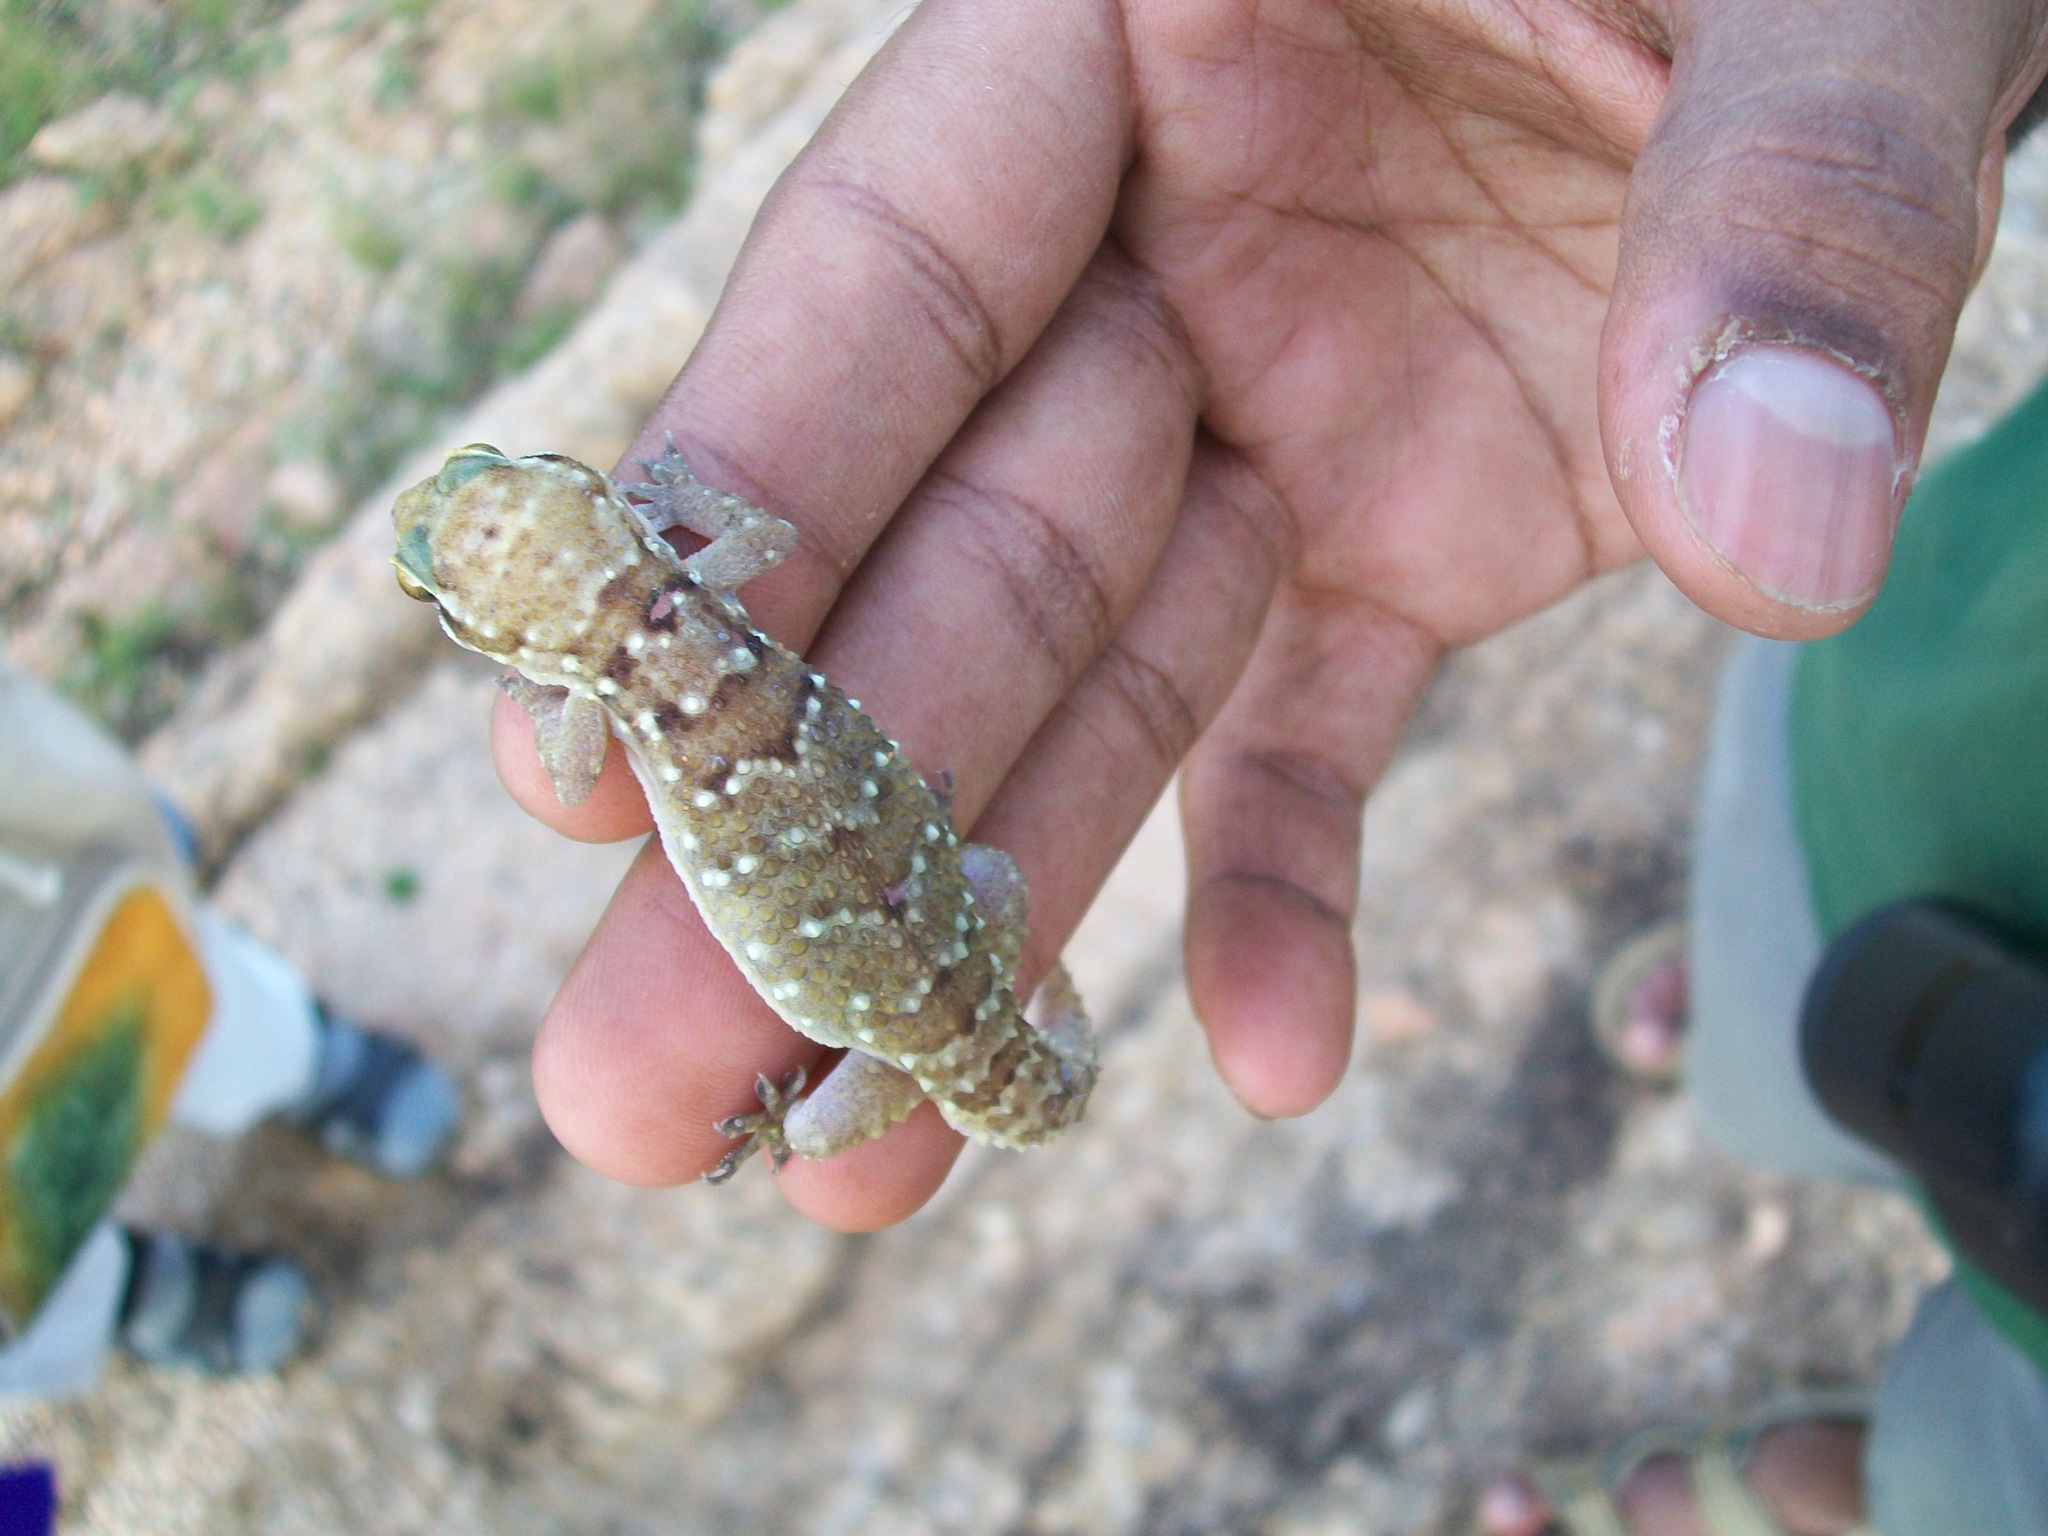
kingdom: Animalia
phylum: Chordata
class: Squamata
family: Gekkonidae
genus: Hemidactylus
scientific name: Hemidactylus triedrus
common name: Blotched house gecko
